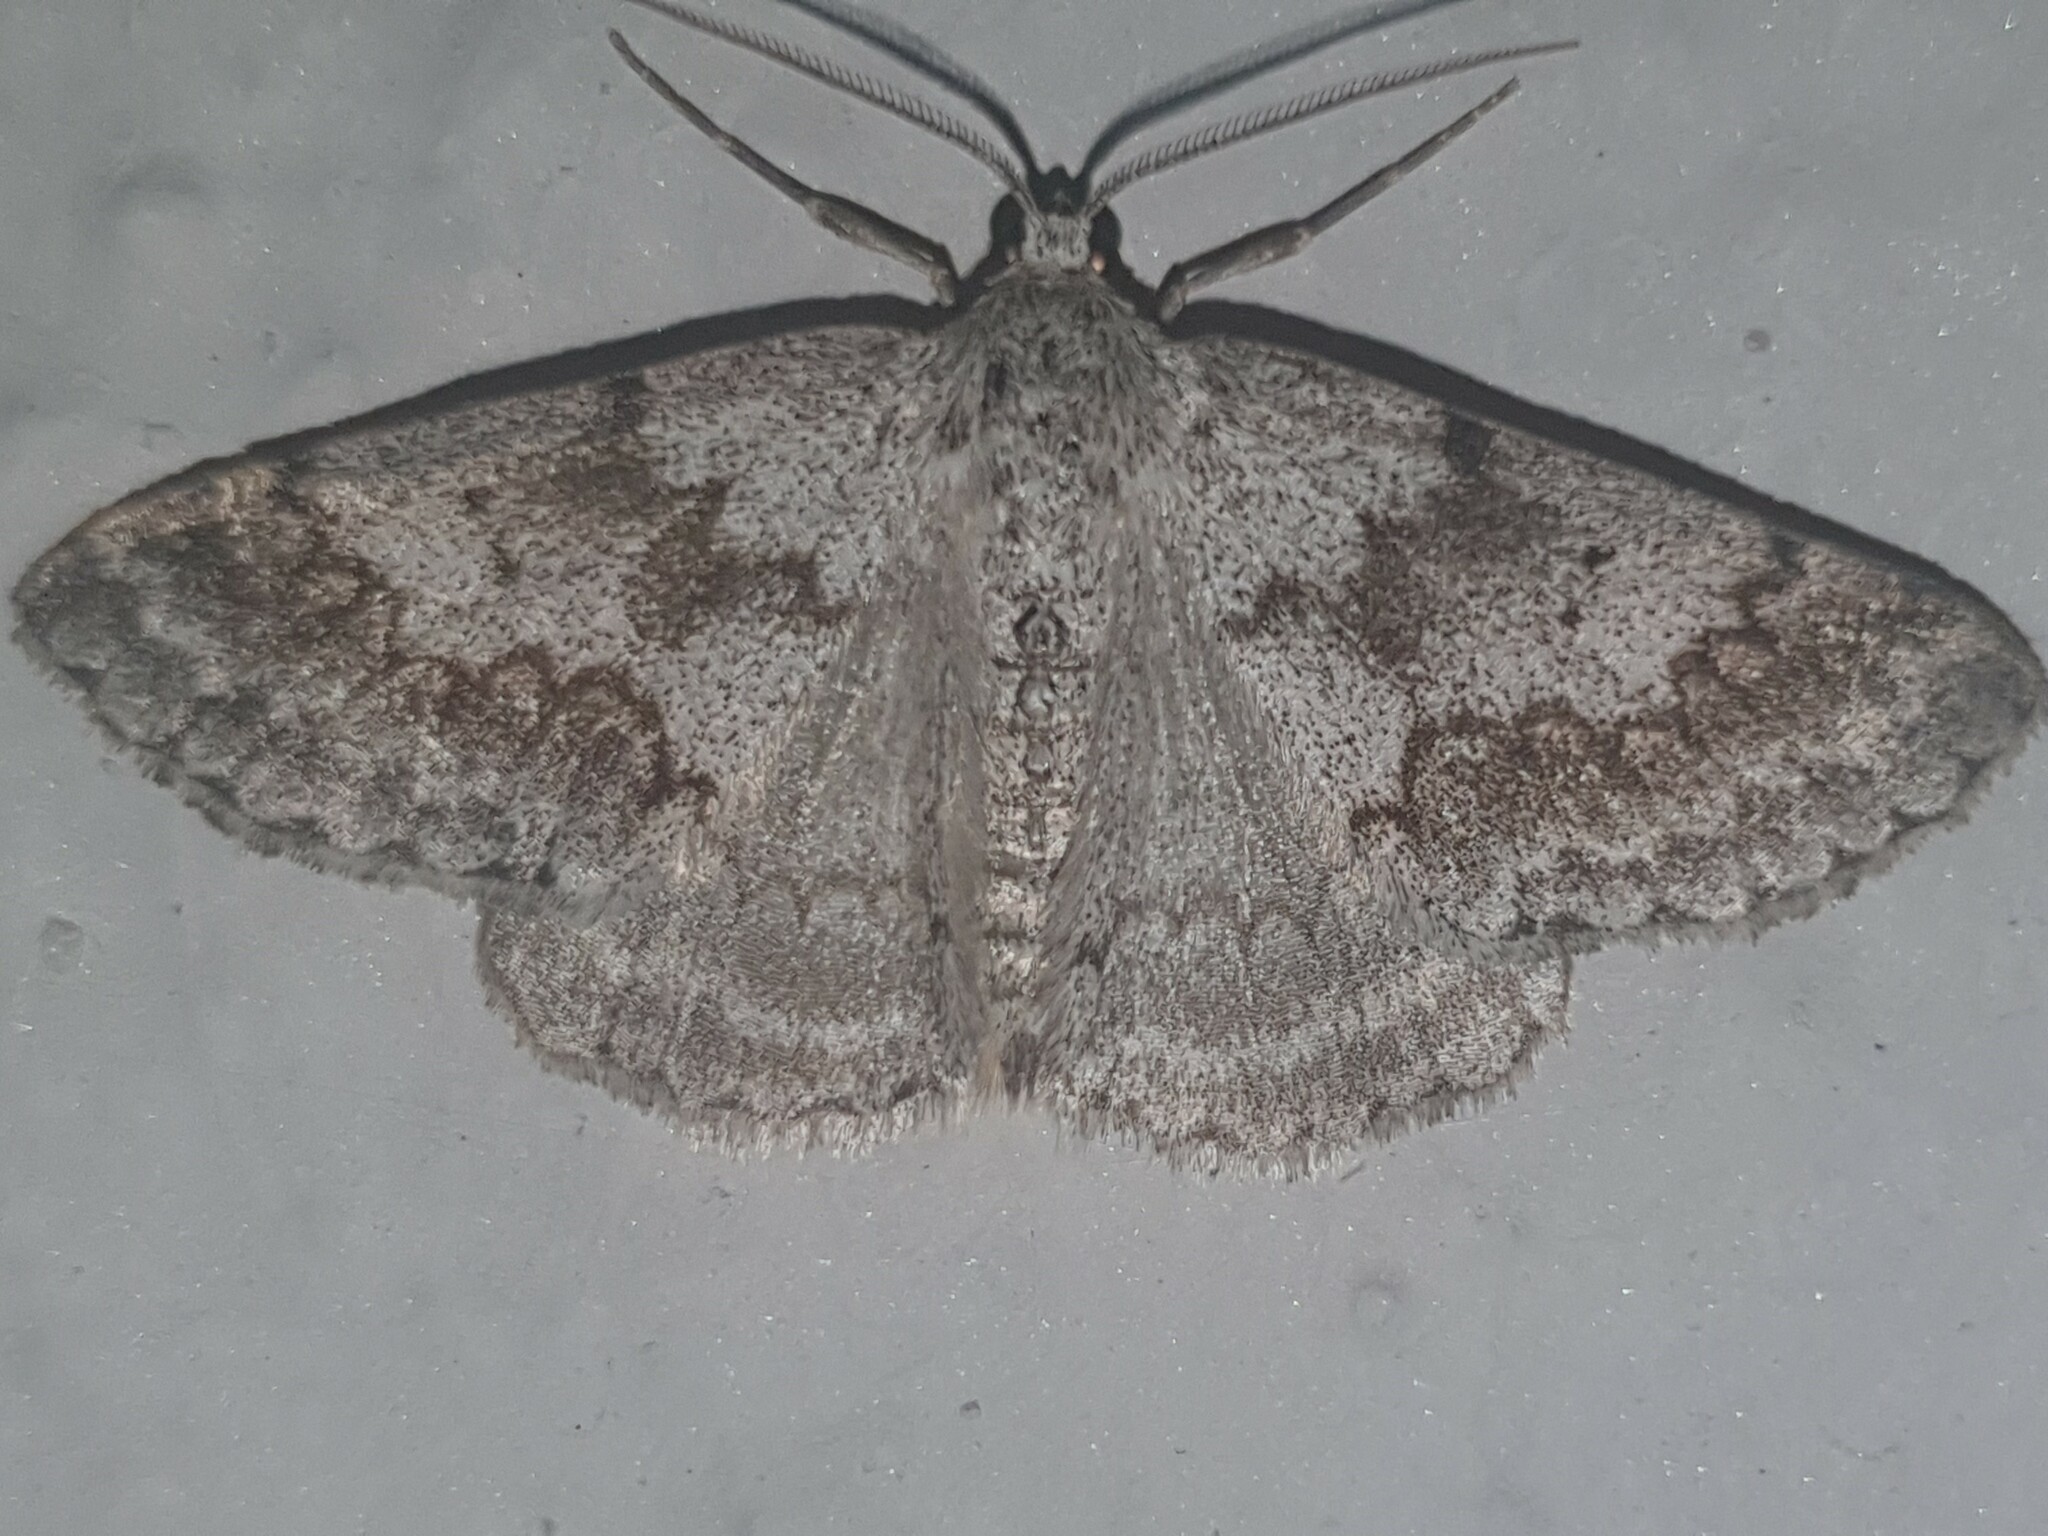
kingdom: Animalia
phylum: Arthropoda
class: Insecta
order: Lepidoptera
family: Geometridae
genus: Pseudoterpna
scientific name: Pseudoterpna coronillaria
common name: Jersey emerald
